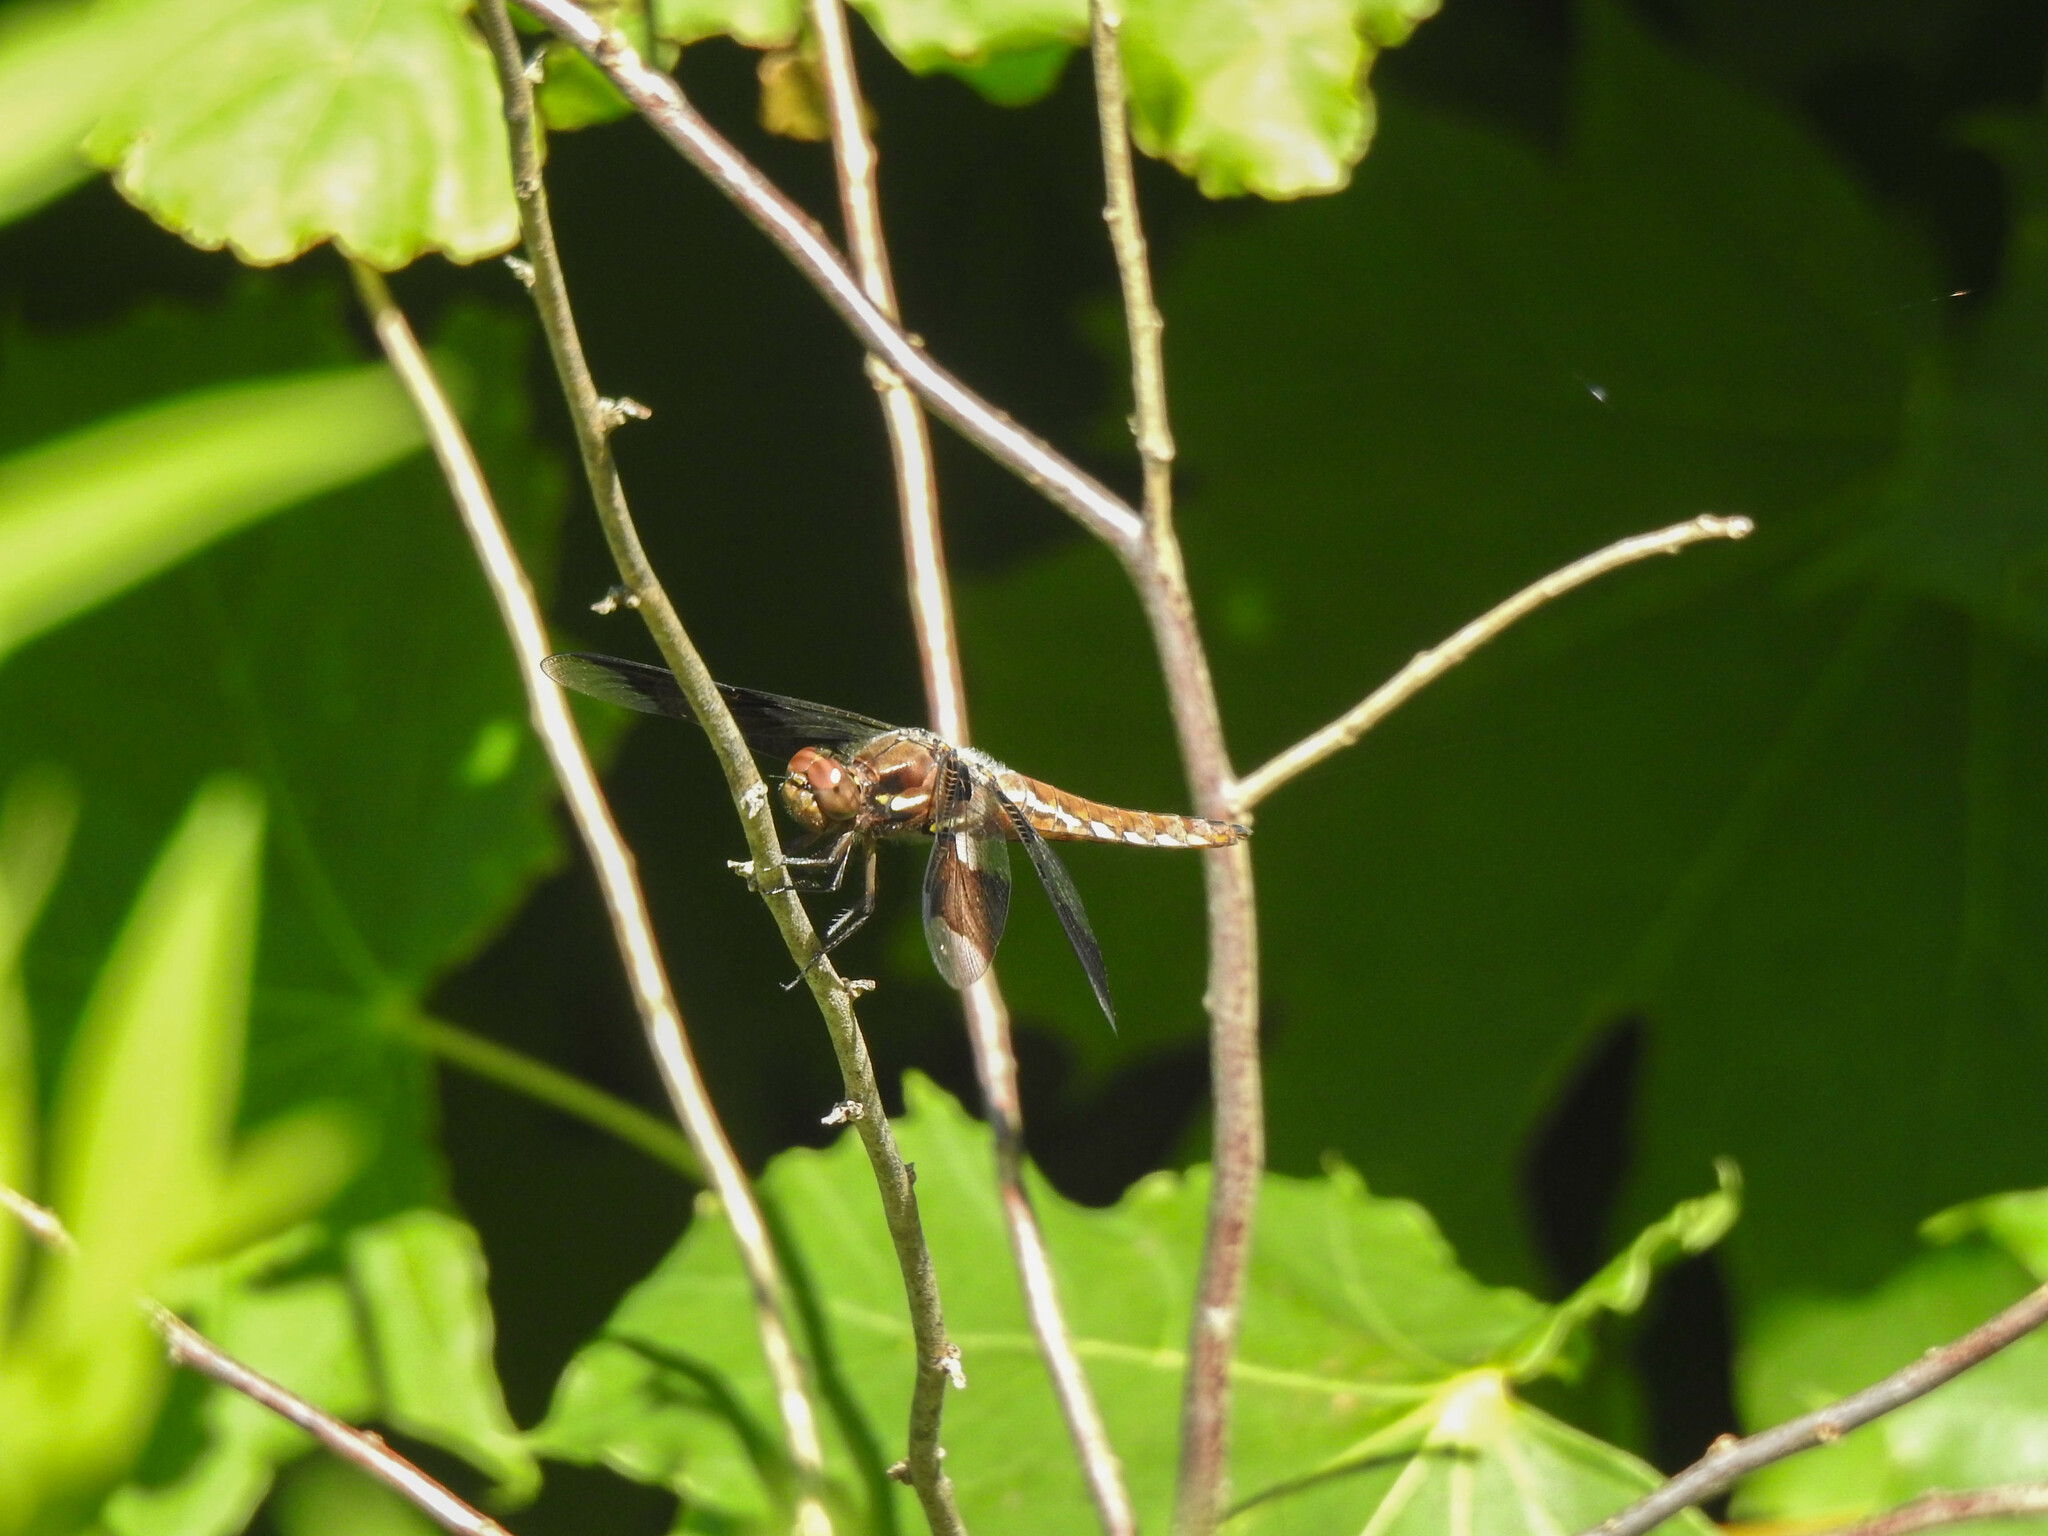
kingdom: Animalia
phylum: Arthropoda
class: Insecta
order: Odonata
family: Libellulidae
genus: Plathemis
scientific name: Plathemis lydia
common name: Common whitetail
